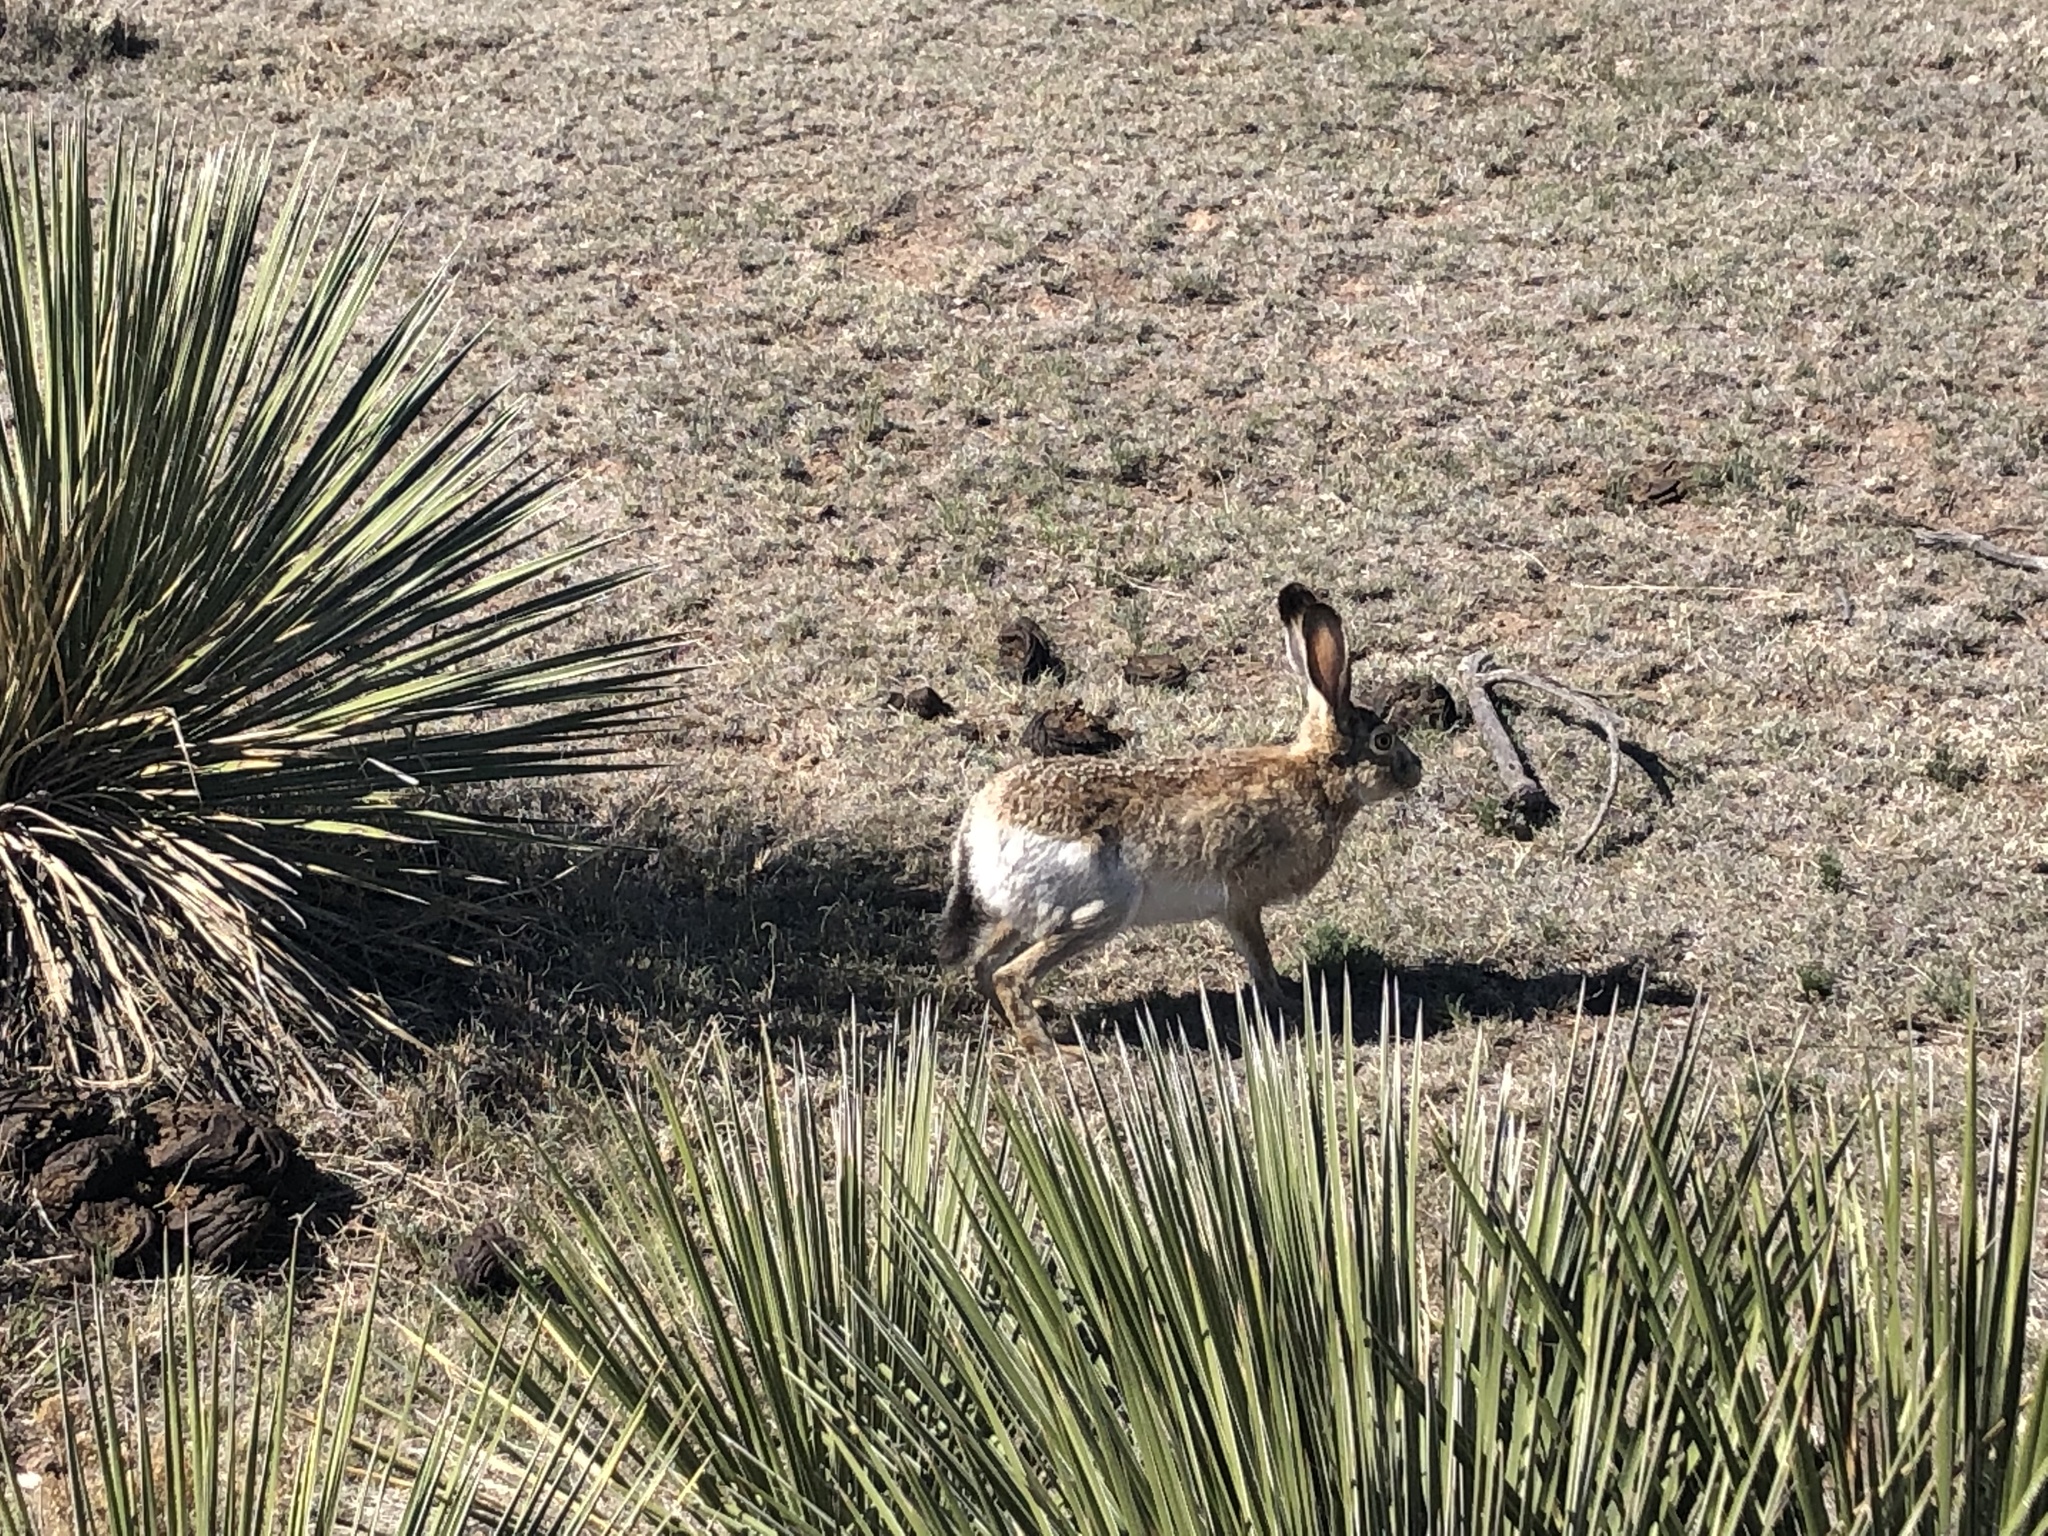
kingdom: Animalia
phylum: Chordata
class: Mammalia
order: Lagomorpha
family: Leporidae
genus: Lepus
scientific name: Lepus californicus
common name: Black-tailed jackrabbit
